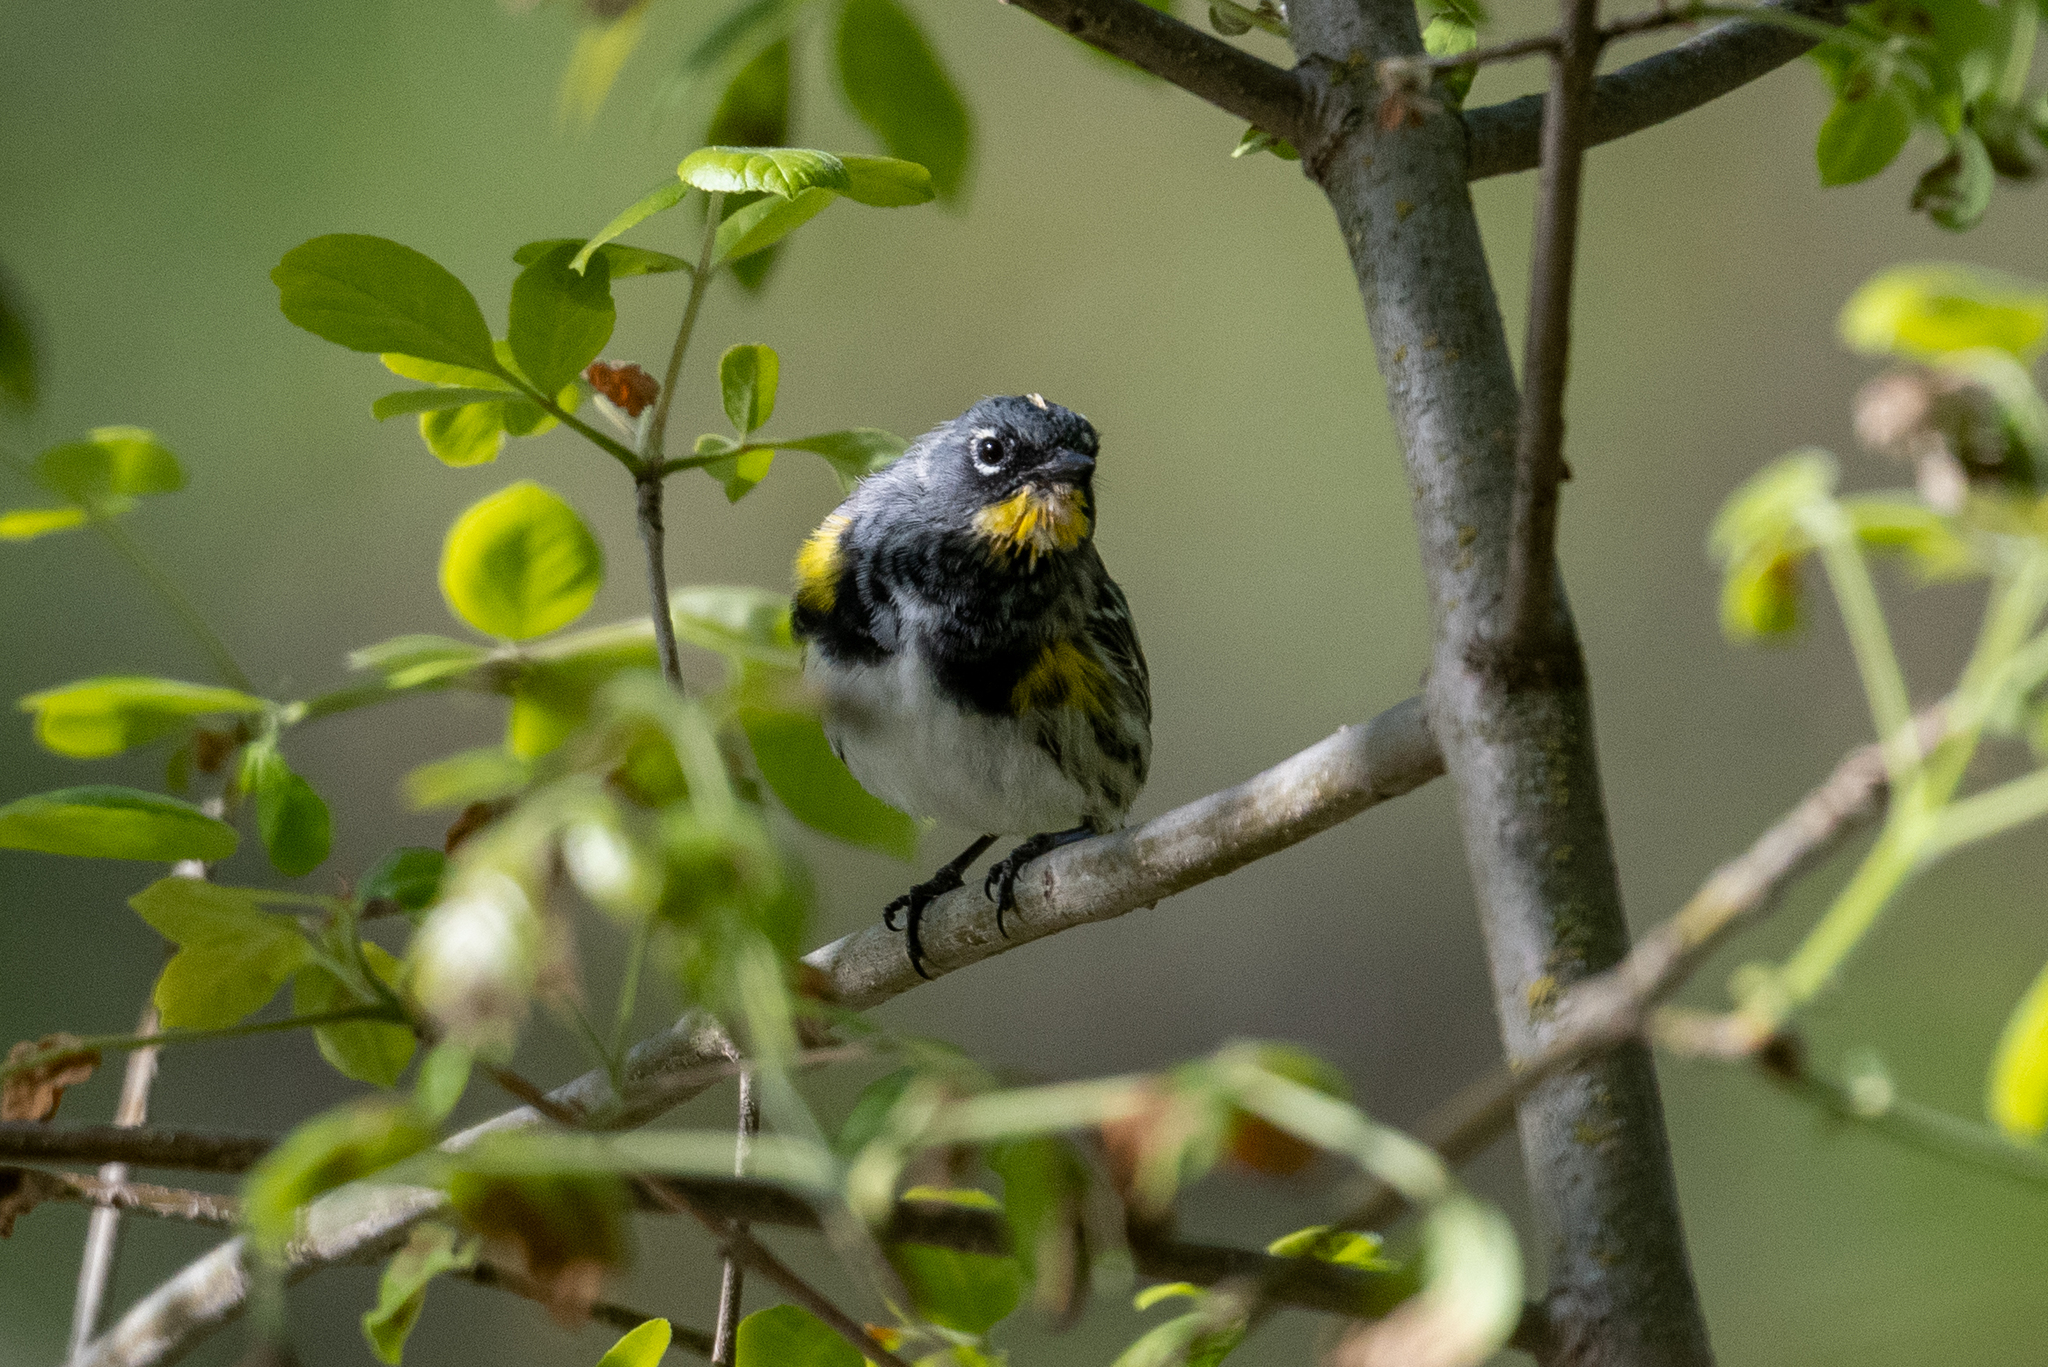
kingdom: Animalia
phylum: Chordata
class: Aves
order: Passeriformes
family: Parulidae
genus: Setophaga
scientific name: Setophaga coronata
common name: Myrtle warbler
